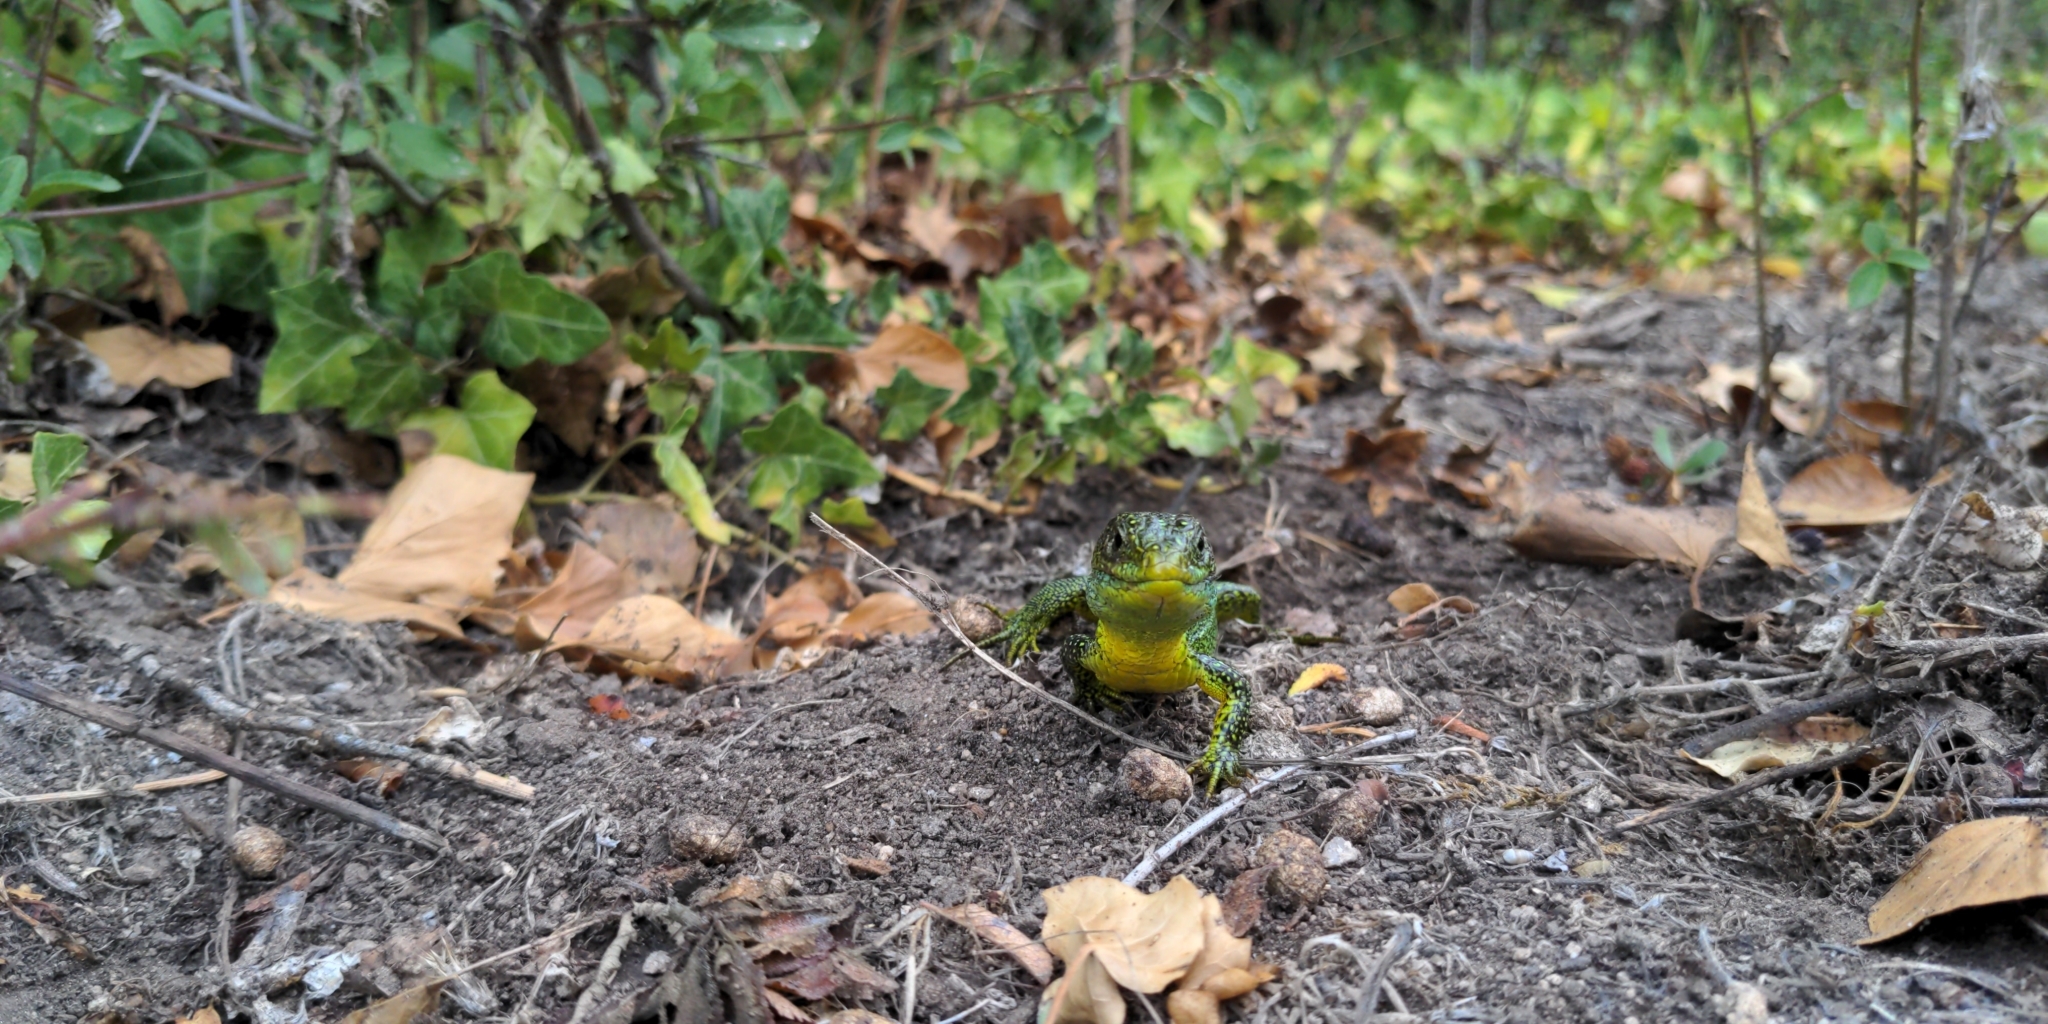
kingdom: Animalia
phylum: Chordata
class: Squamata
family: Lacertidae
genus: Lacerta
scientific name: Lacerta bilineata
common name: Western green lizard
